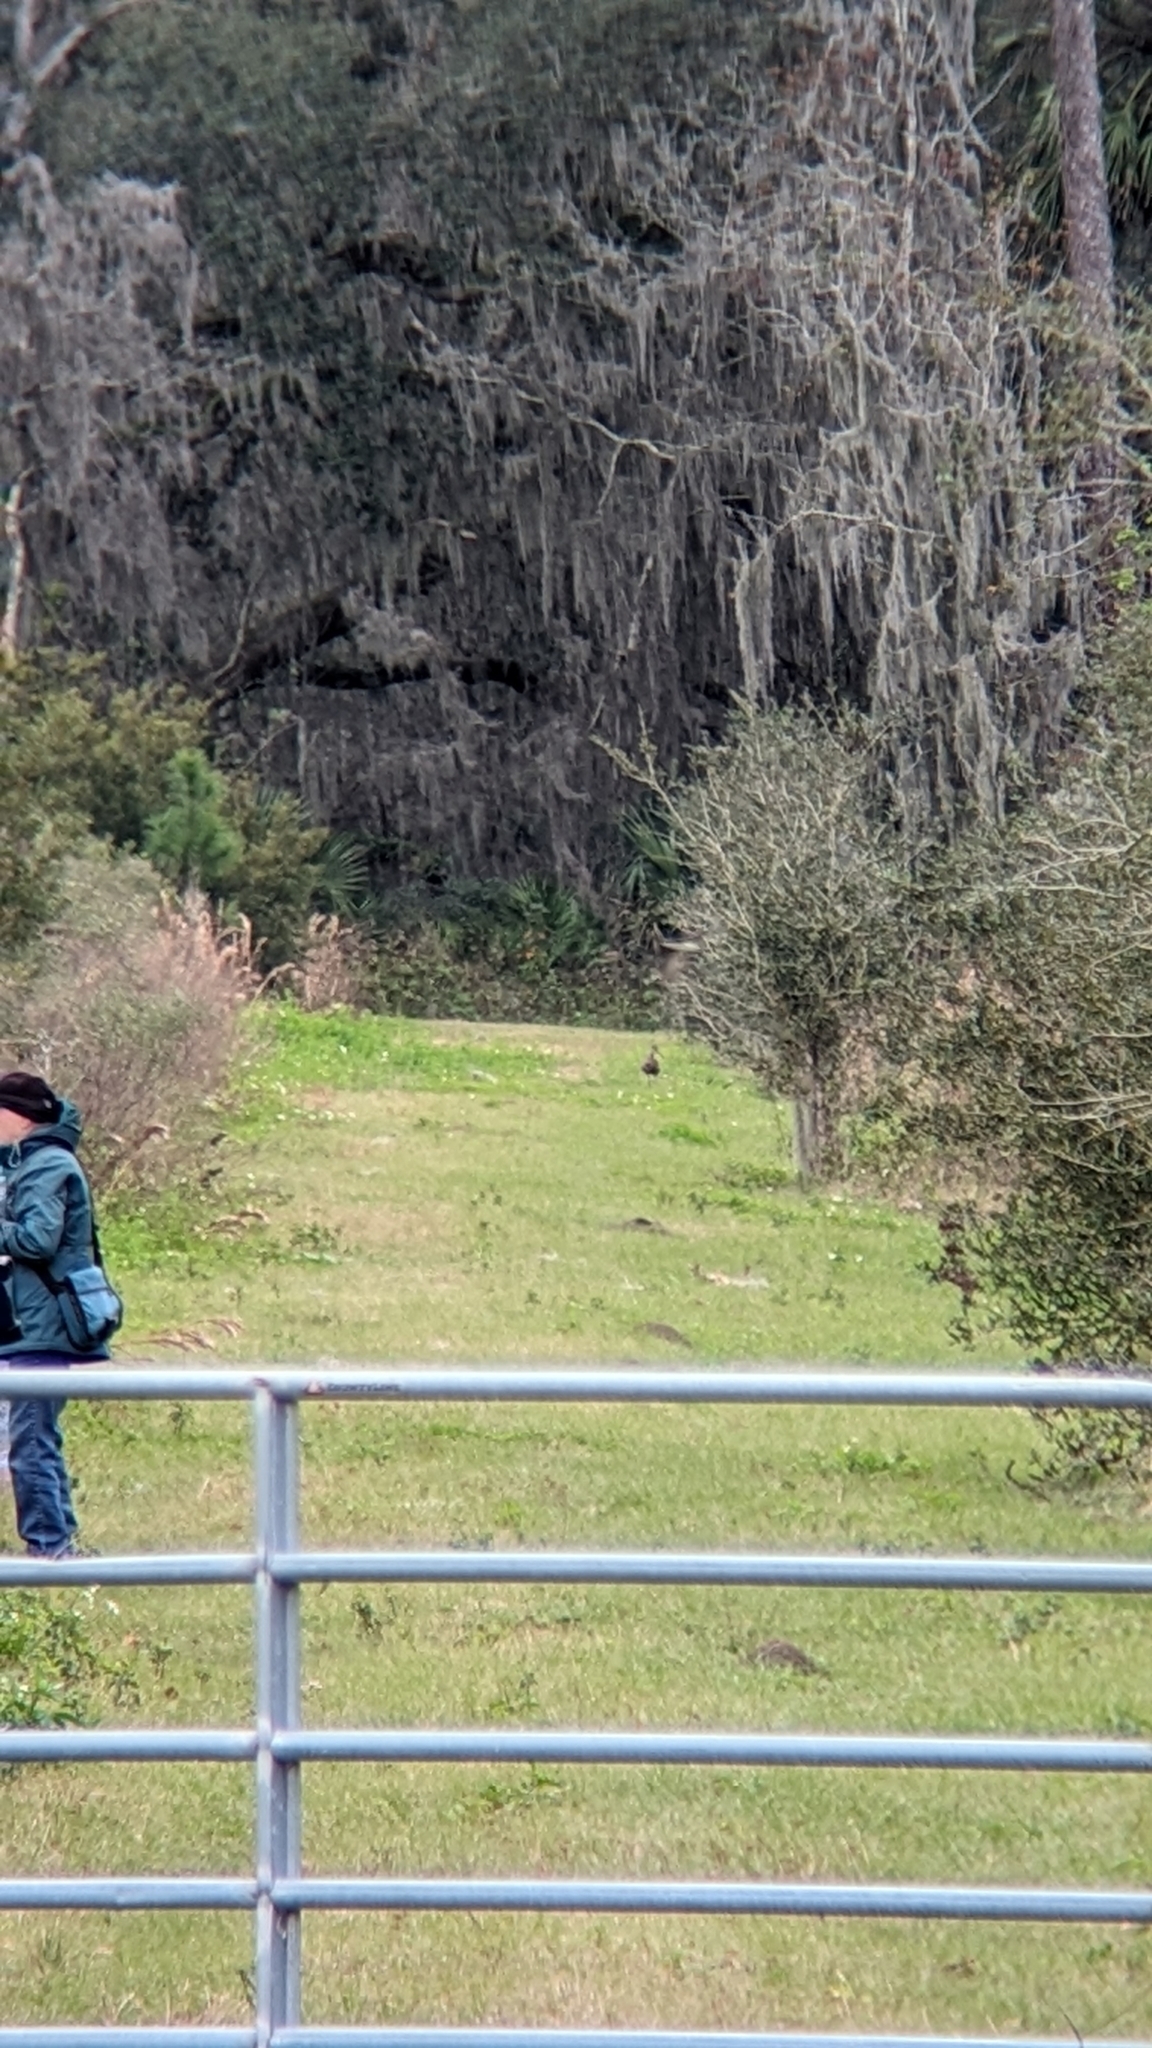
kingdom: Animalia
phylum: Chordata
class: Aves
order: Gruiformes
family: Aramidae
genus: Aramus
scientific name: Aramus guarauna
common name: Limpkin
